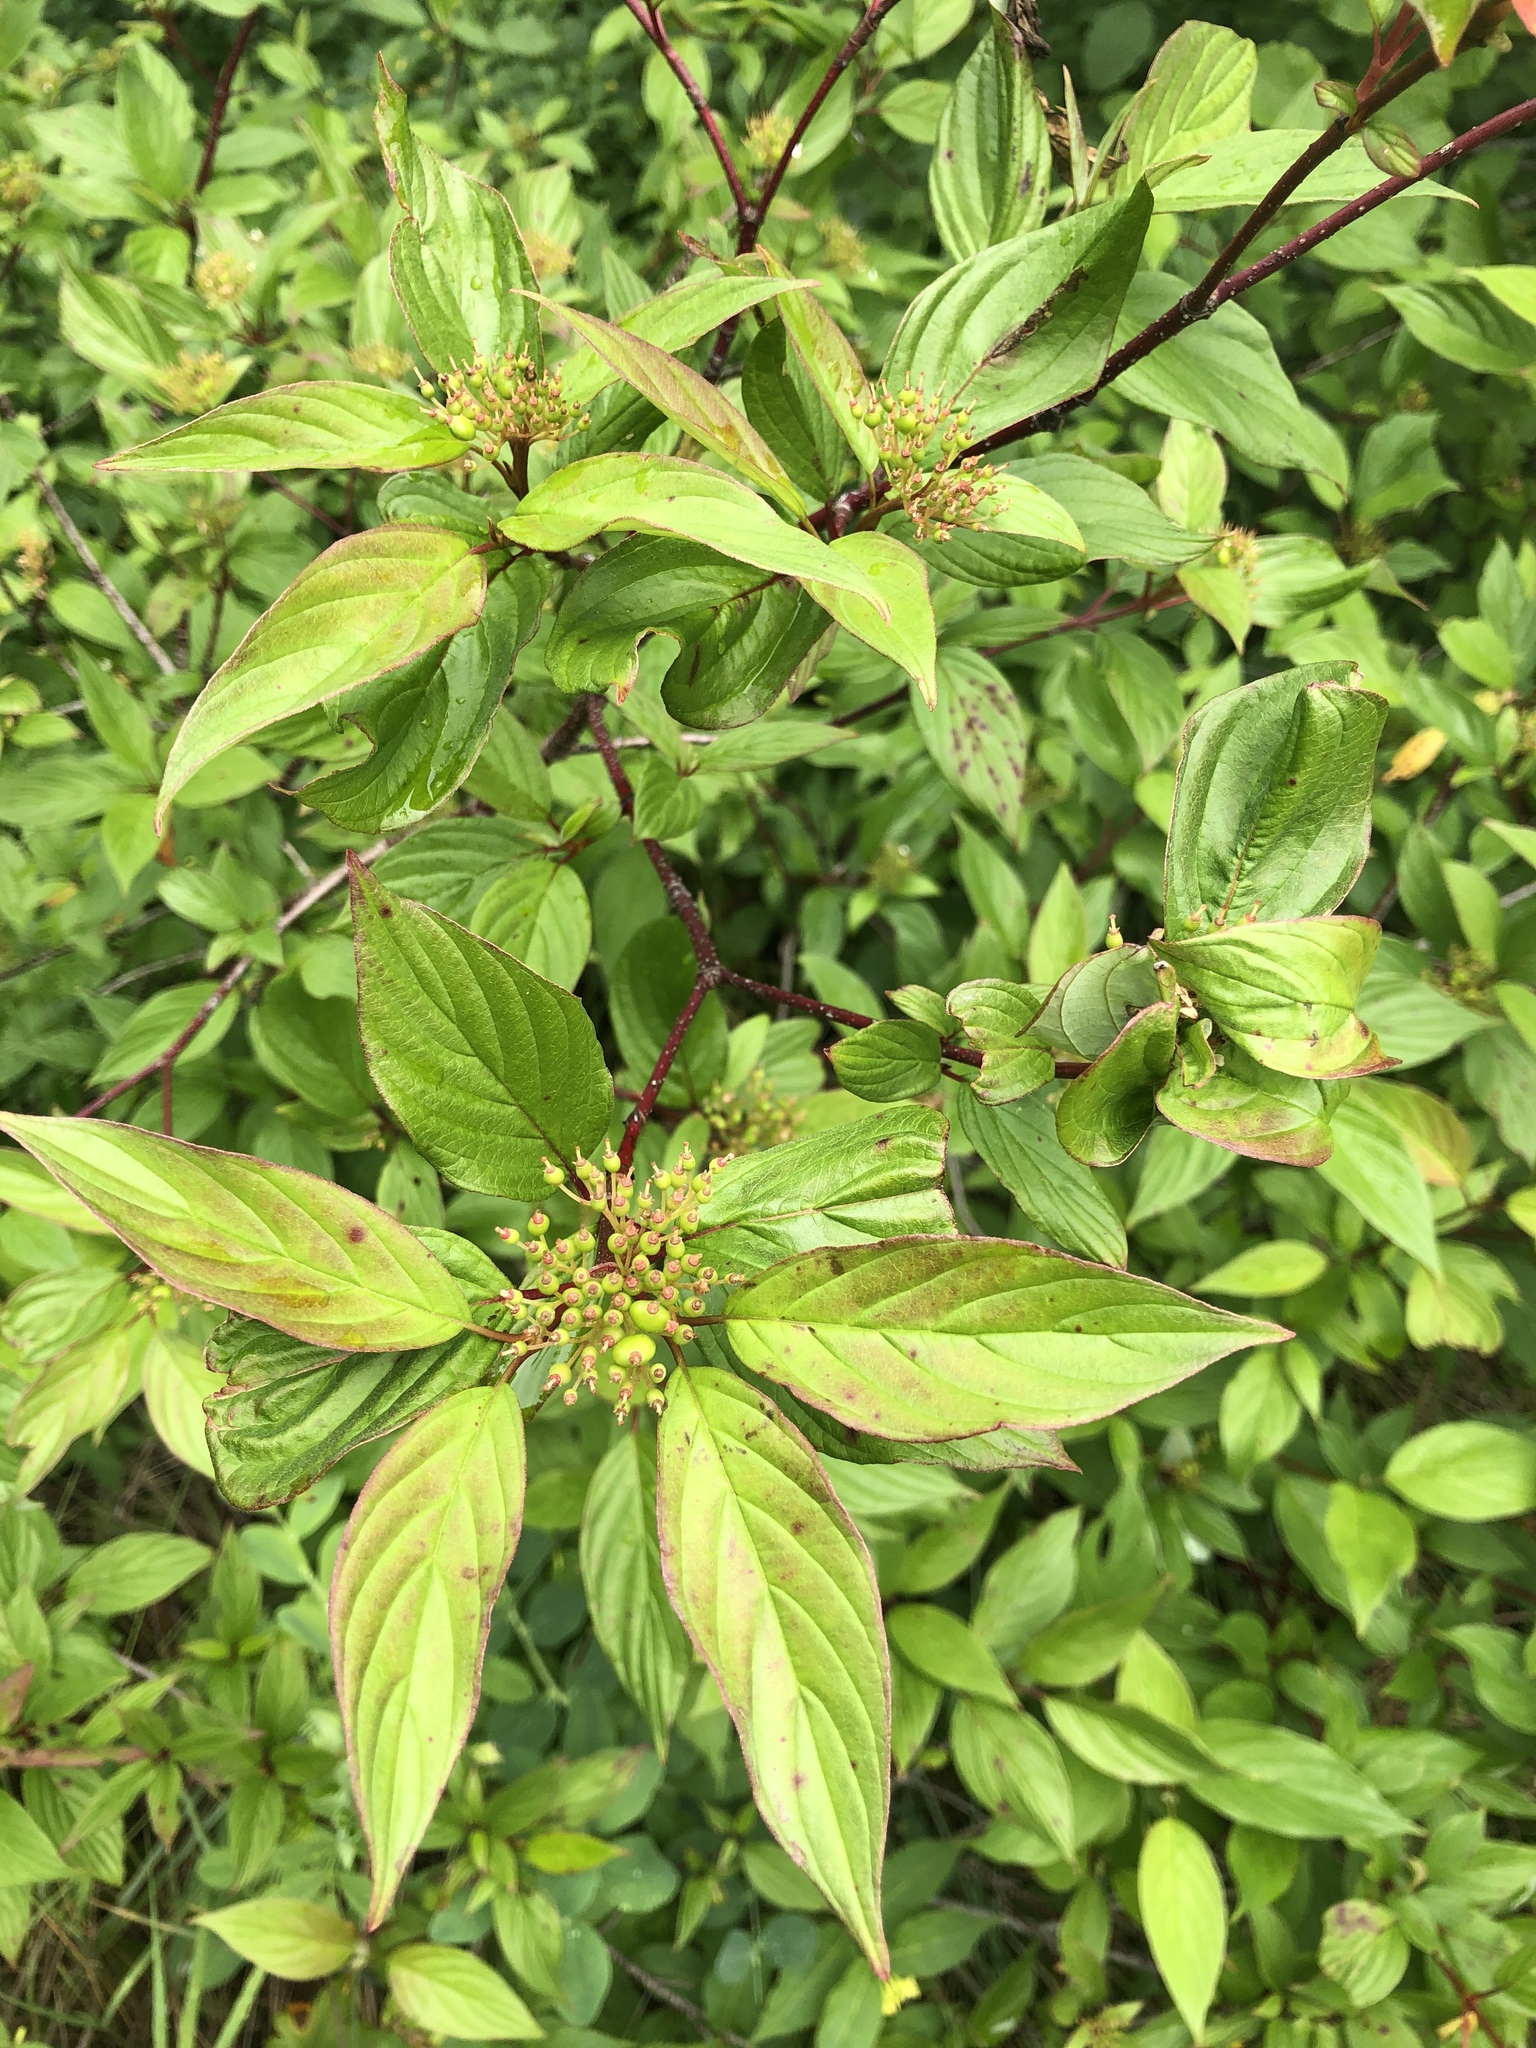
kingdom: Plantae
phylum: Tracheophyta
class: Magnoliopsida
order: Cornales
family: Cornaceae
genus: Cornus
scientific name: Cornus sericea
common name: Red-osier dogwood
